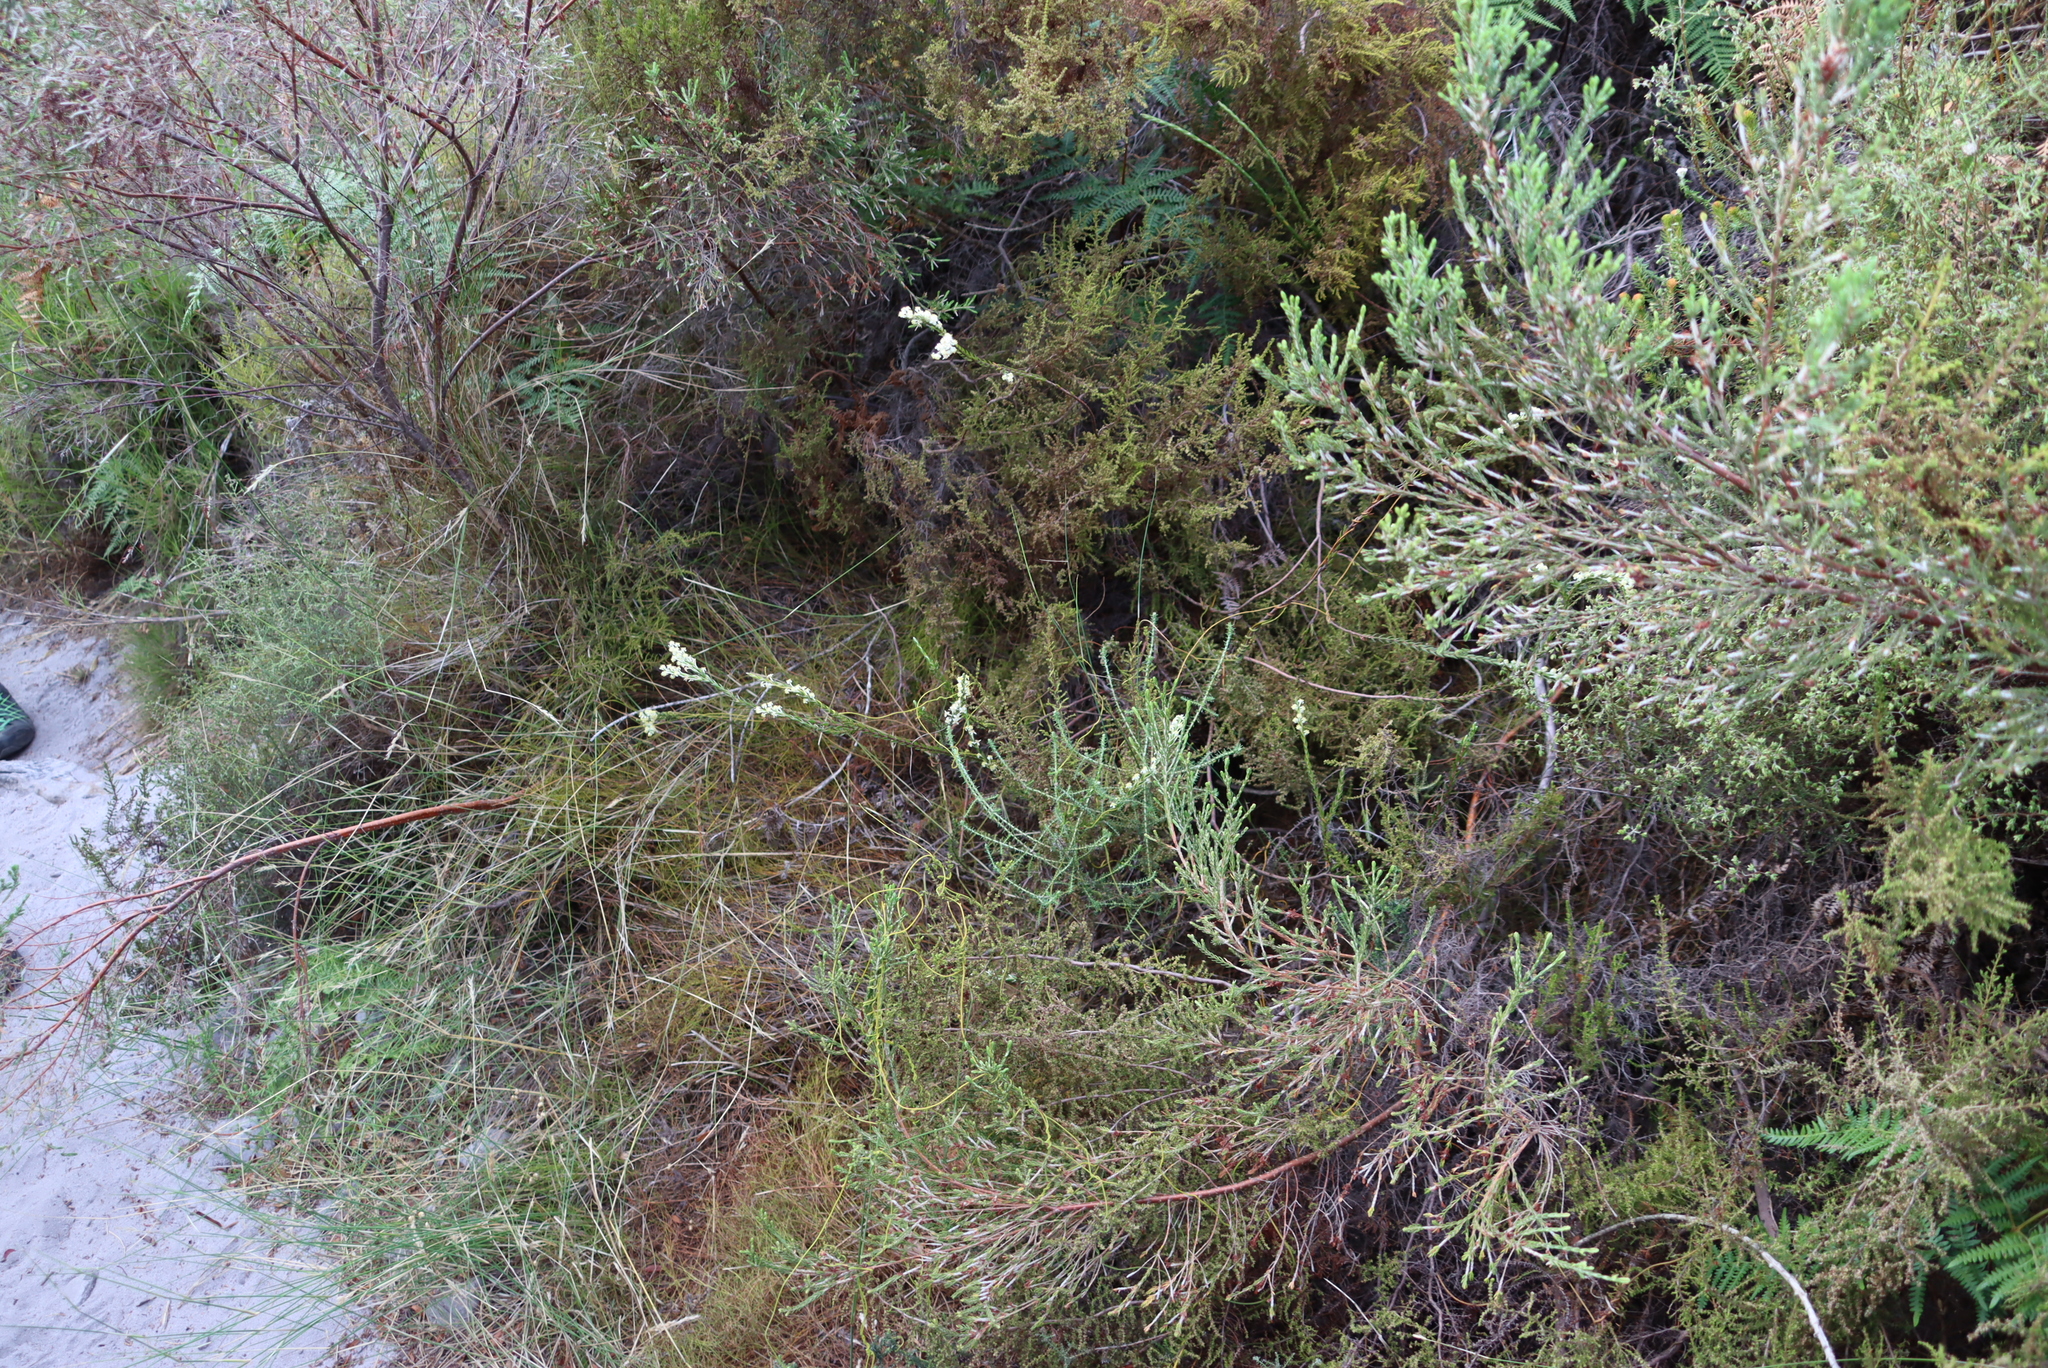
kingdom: Plantae
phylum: Tracheophyta
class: Magnoliopsida
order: Malvales
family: Thymelaeaceae
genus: Struthiola
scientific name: Struthiola ciliata
